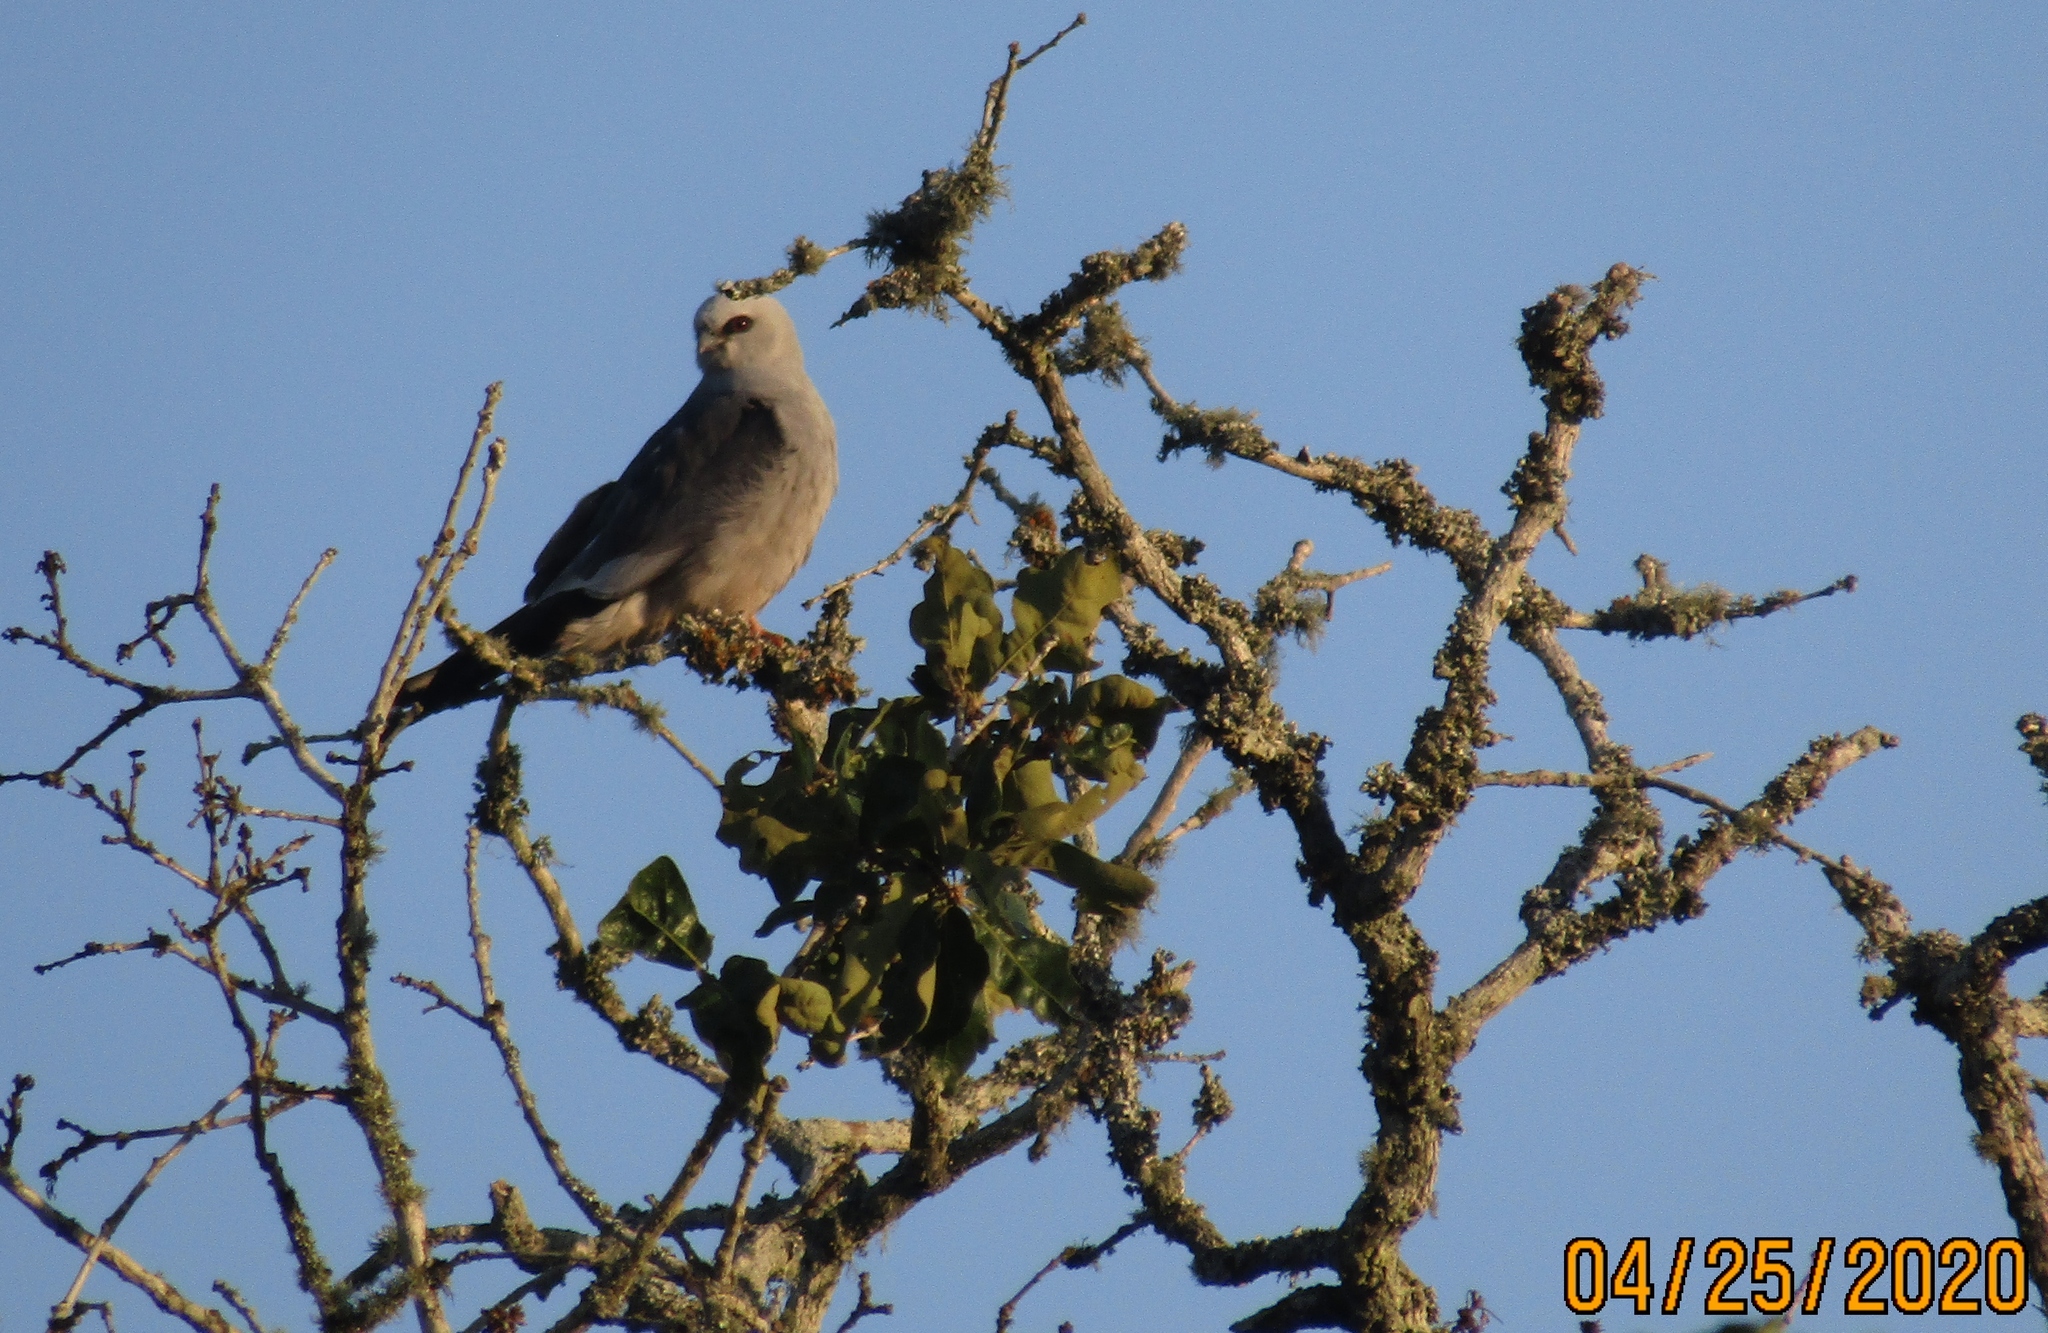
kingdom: Animalia
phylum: Chordata
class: Aves
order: Accipitriformes
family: Accipitridae
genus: Ictinia
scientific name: Ictinia mississippiensis
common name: Mississippi kite
